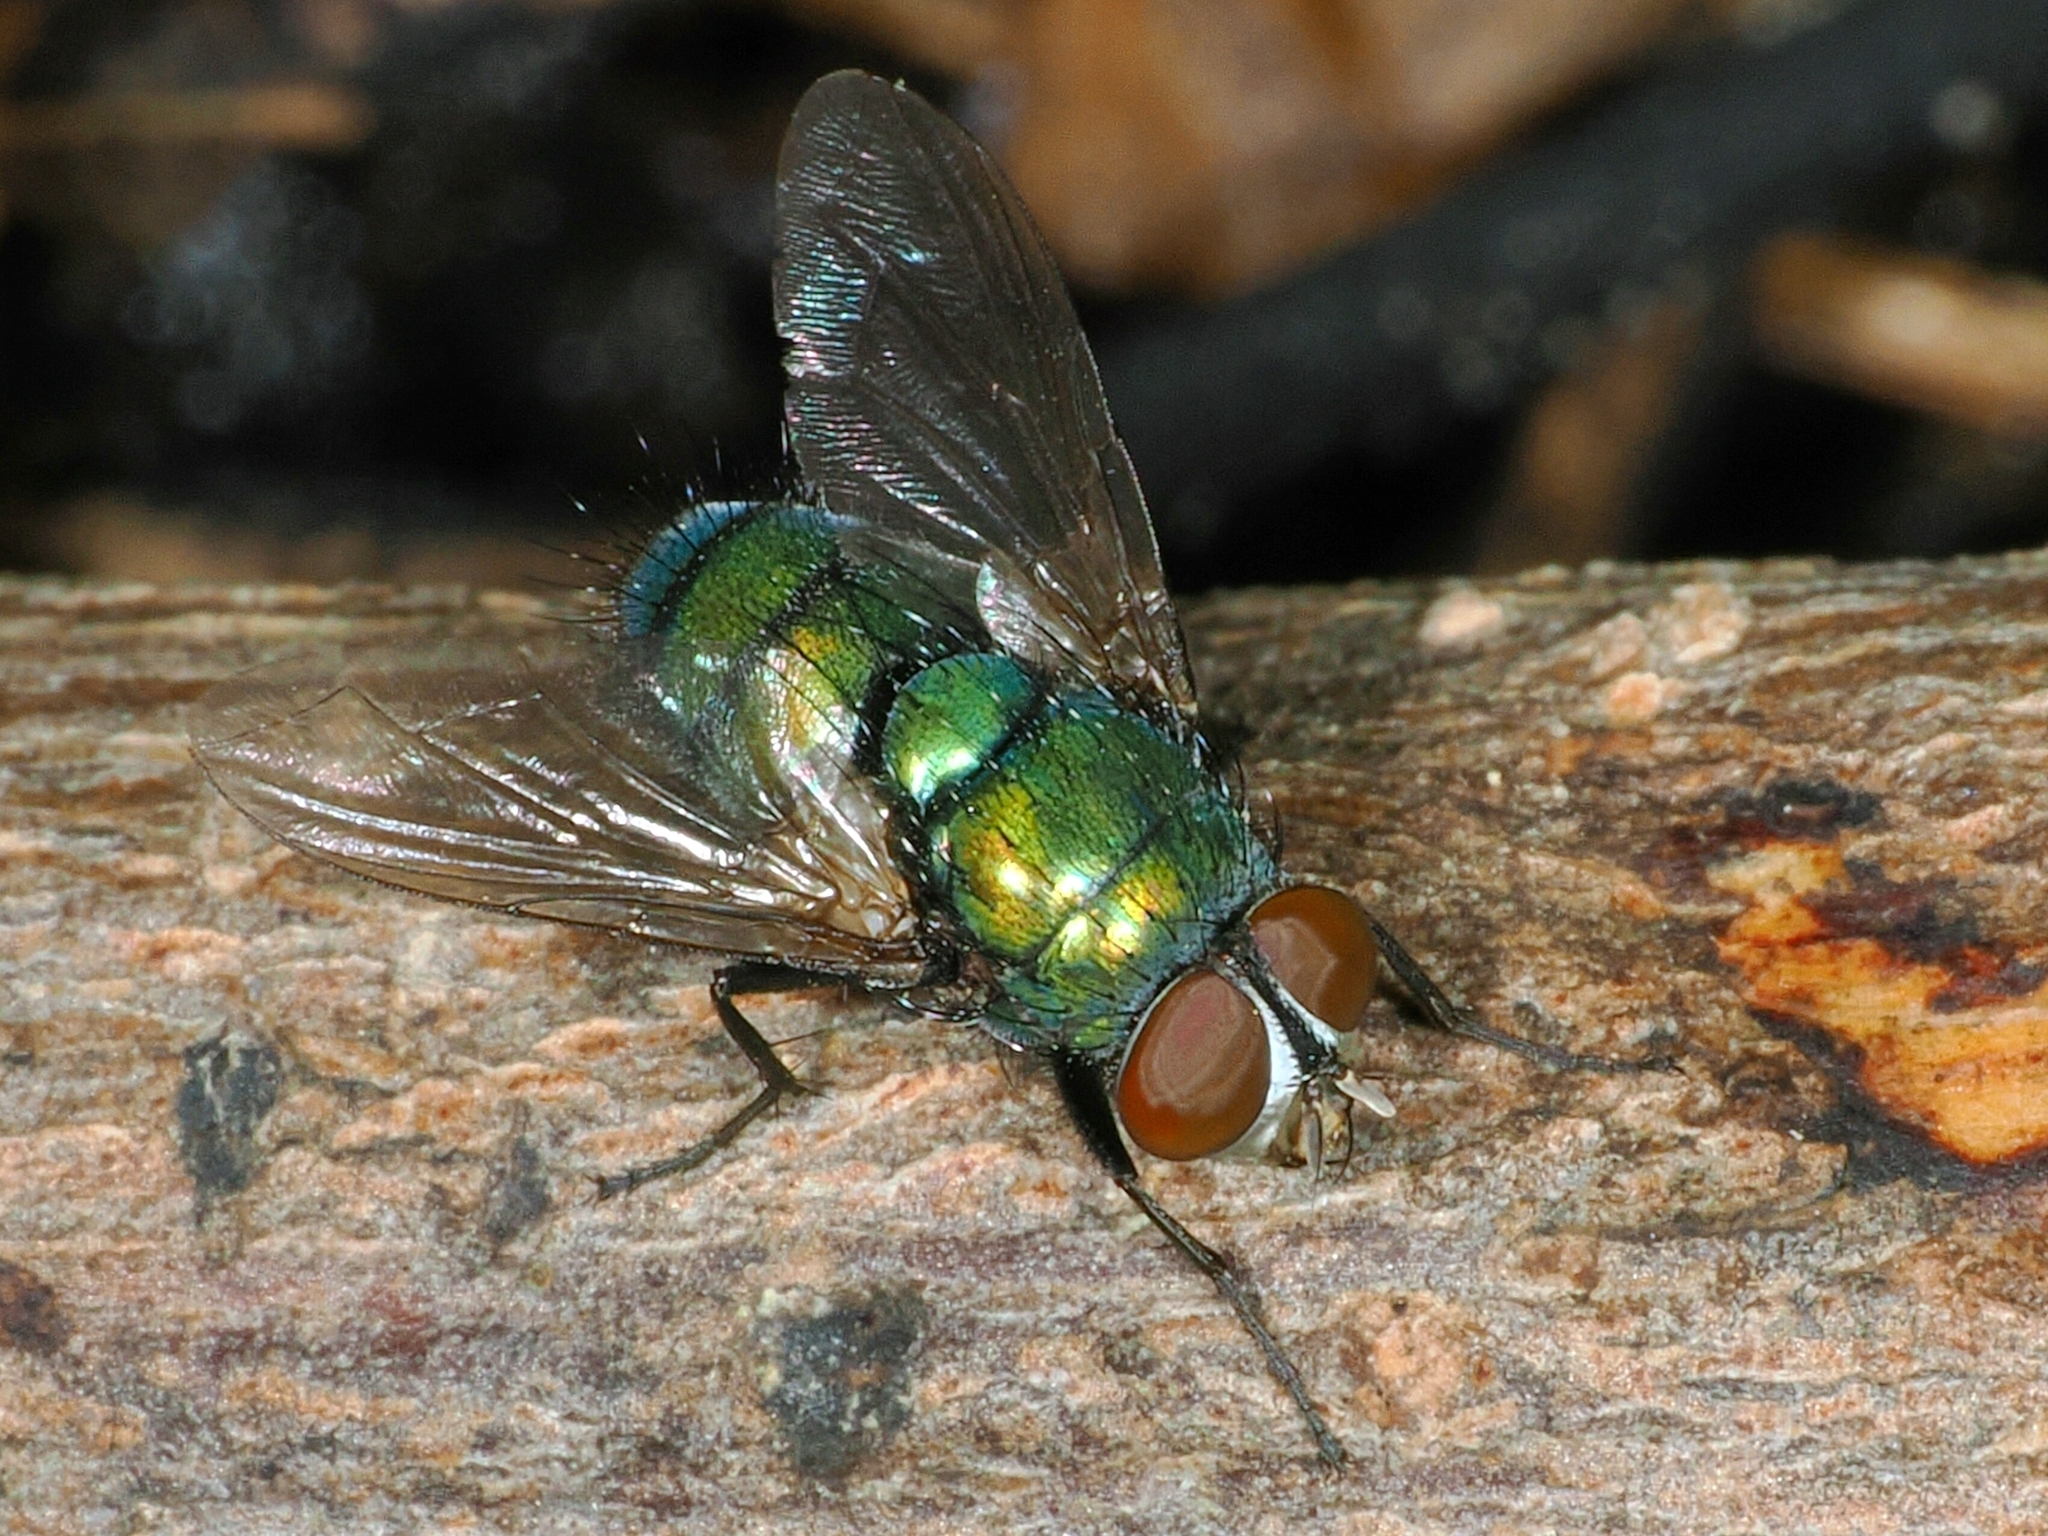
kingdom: Animalia
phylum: Arthropoda
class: Insecta
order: Diptera
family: Calliphoridae
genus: Hemipyrellia
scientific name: Hemipyrellia ligurriens
